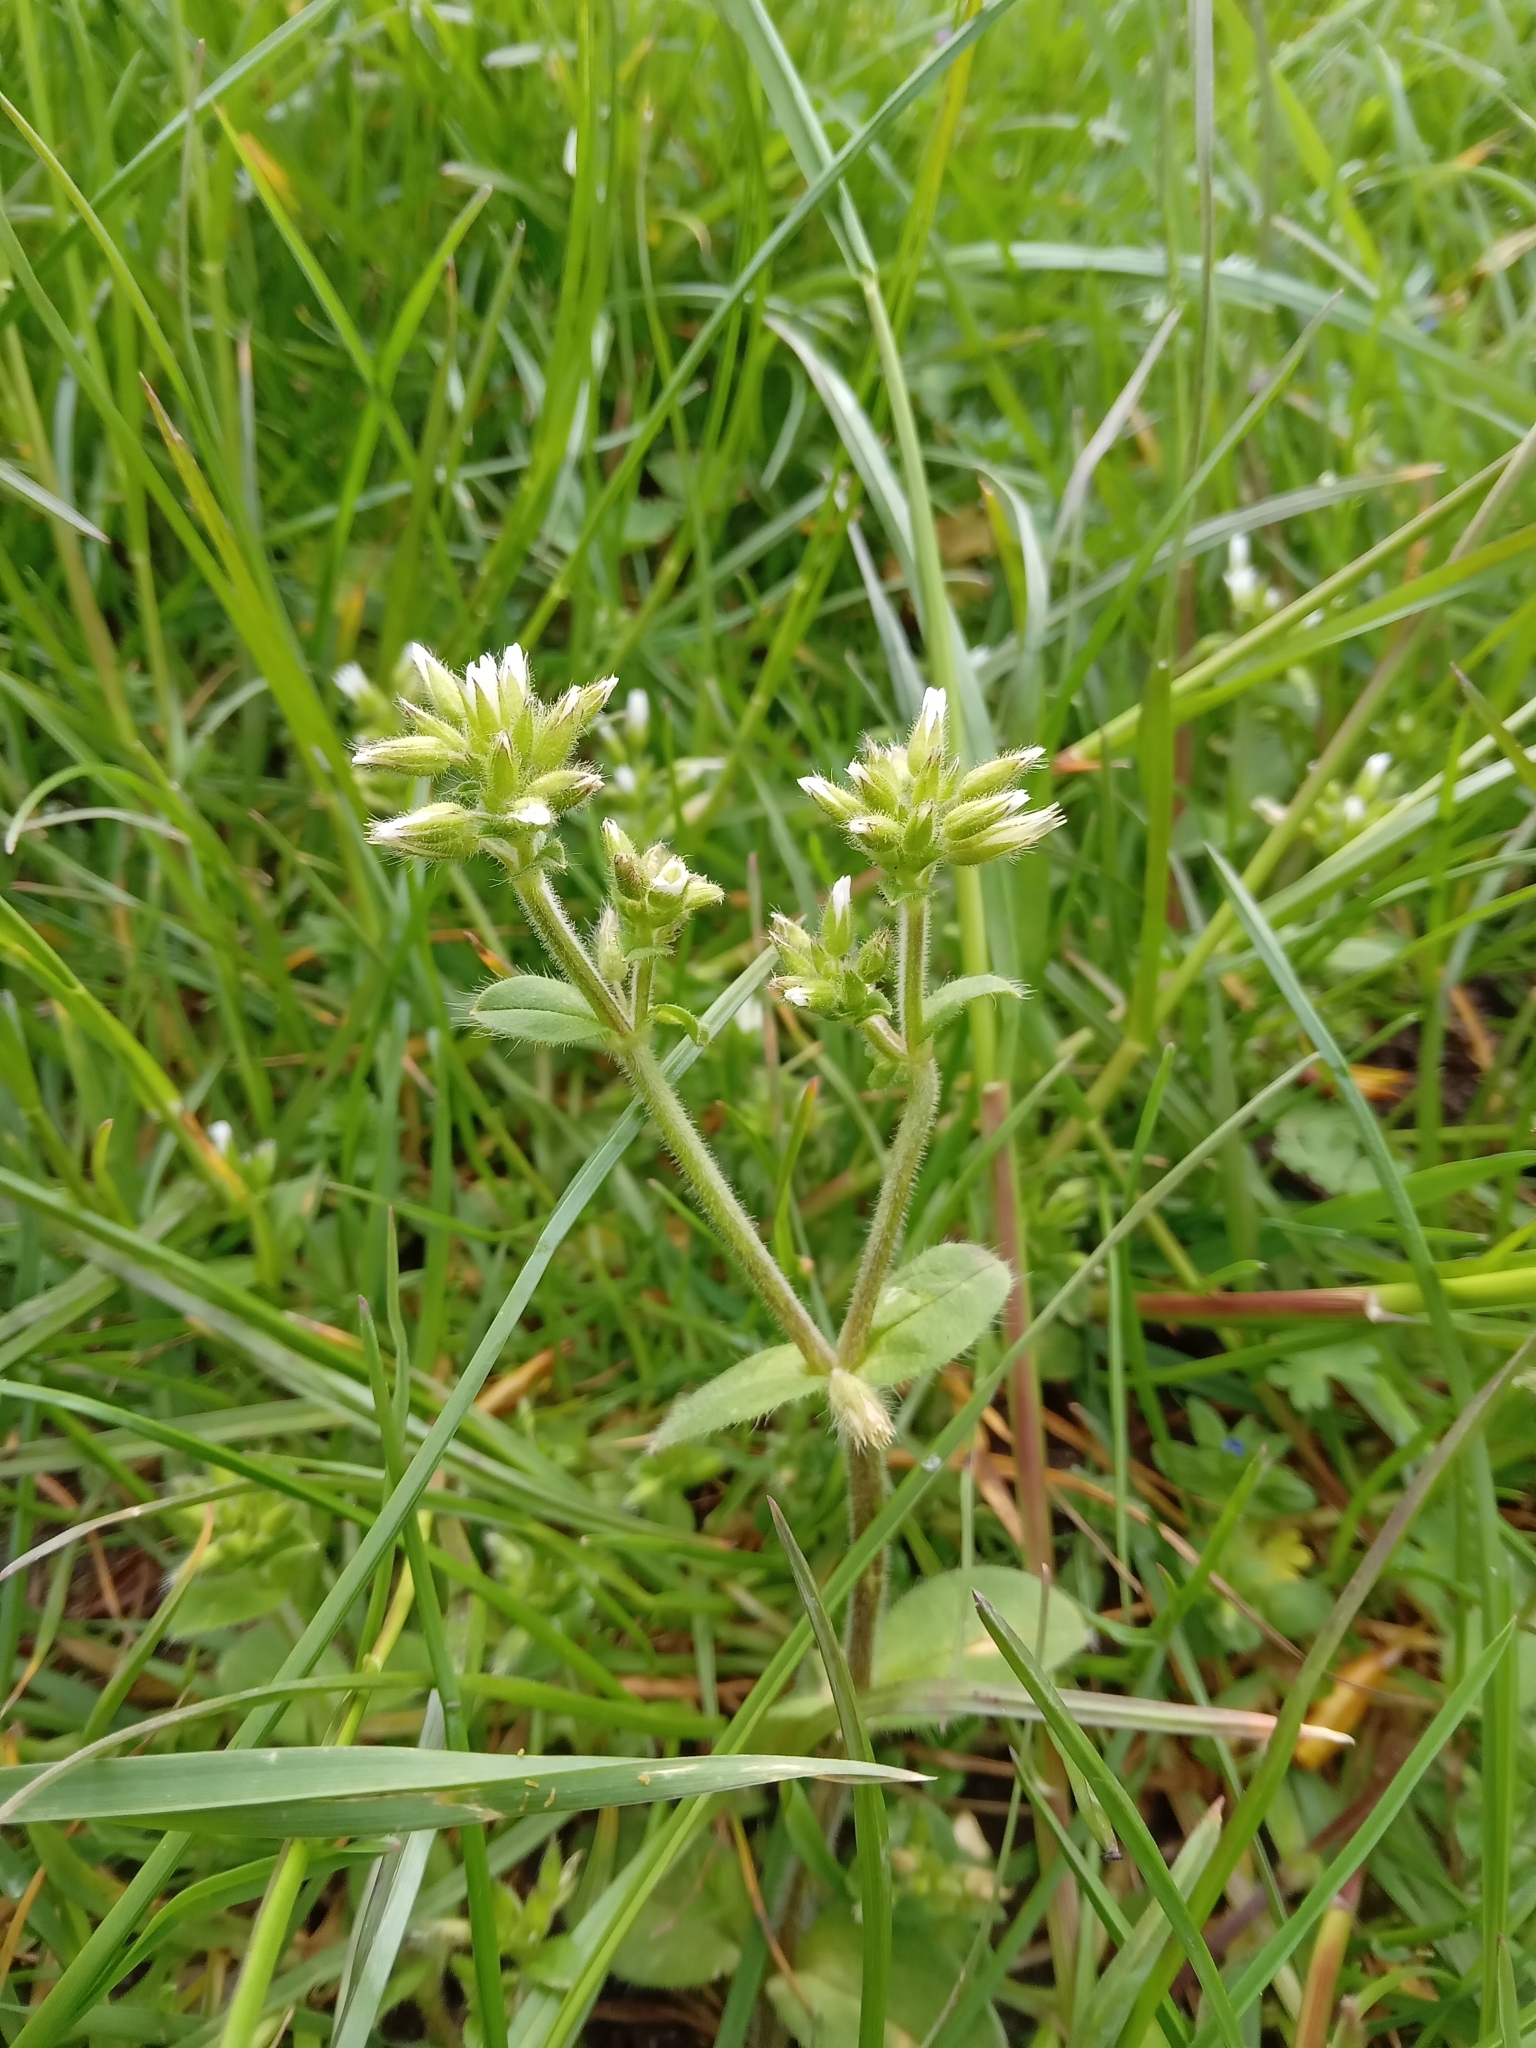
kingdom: Plantae
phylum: Tracheophyta
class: Magnoliopsida
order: Caryophyllales
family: Caryophyllaceae
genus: Cerastium
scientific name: Cerastium glomeratum
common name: Sticky chickweed
